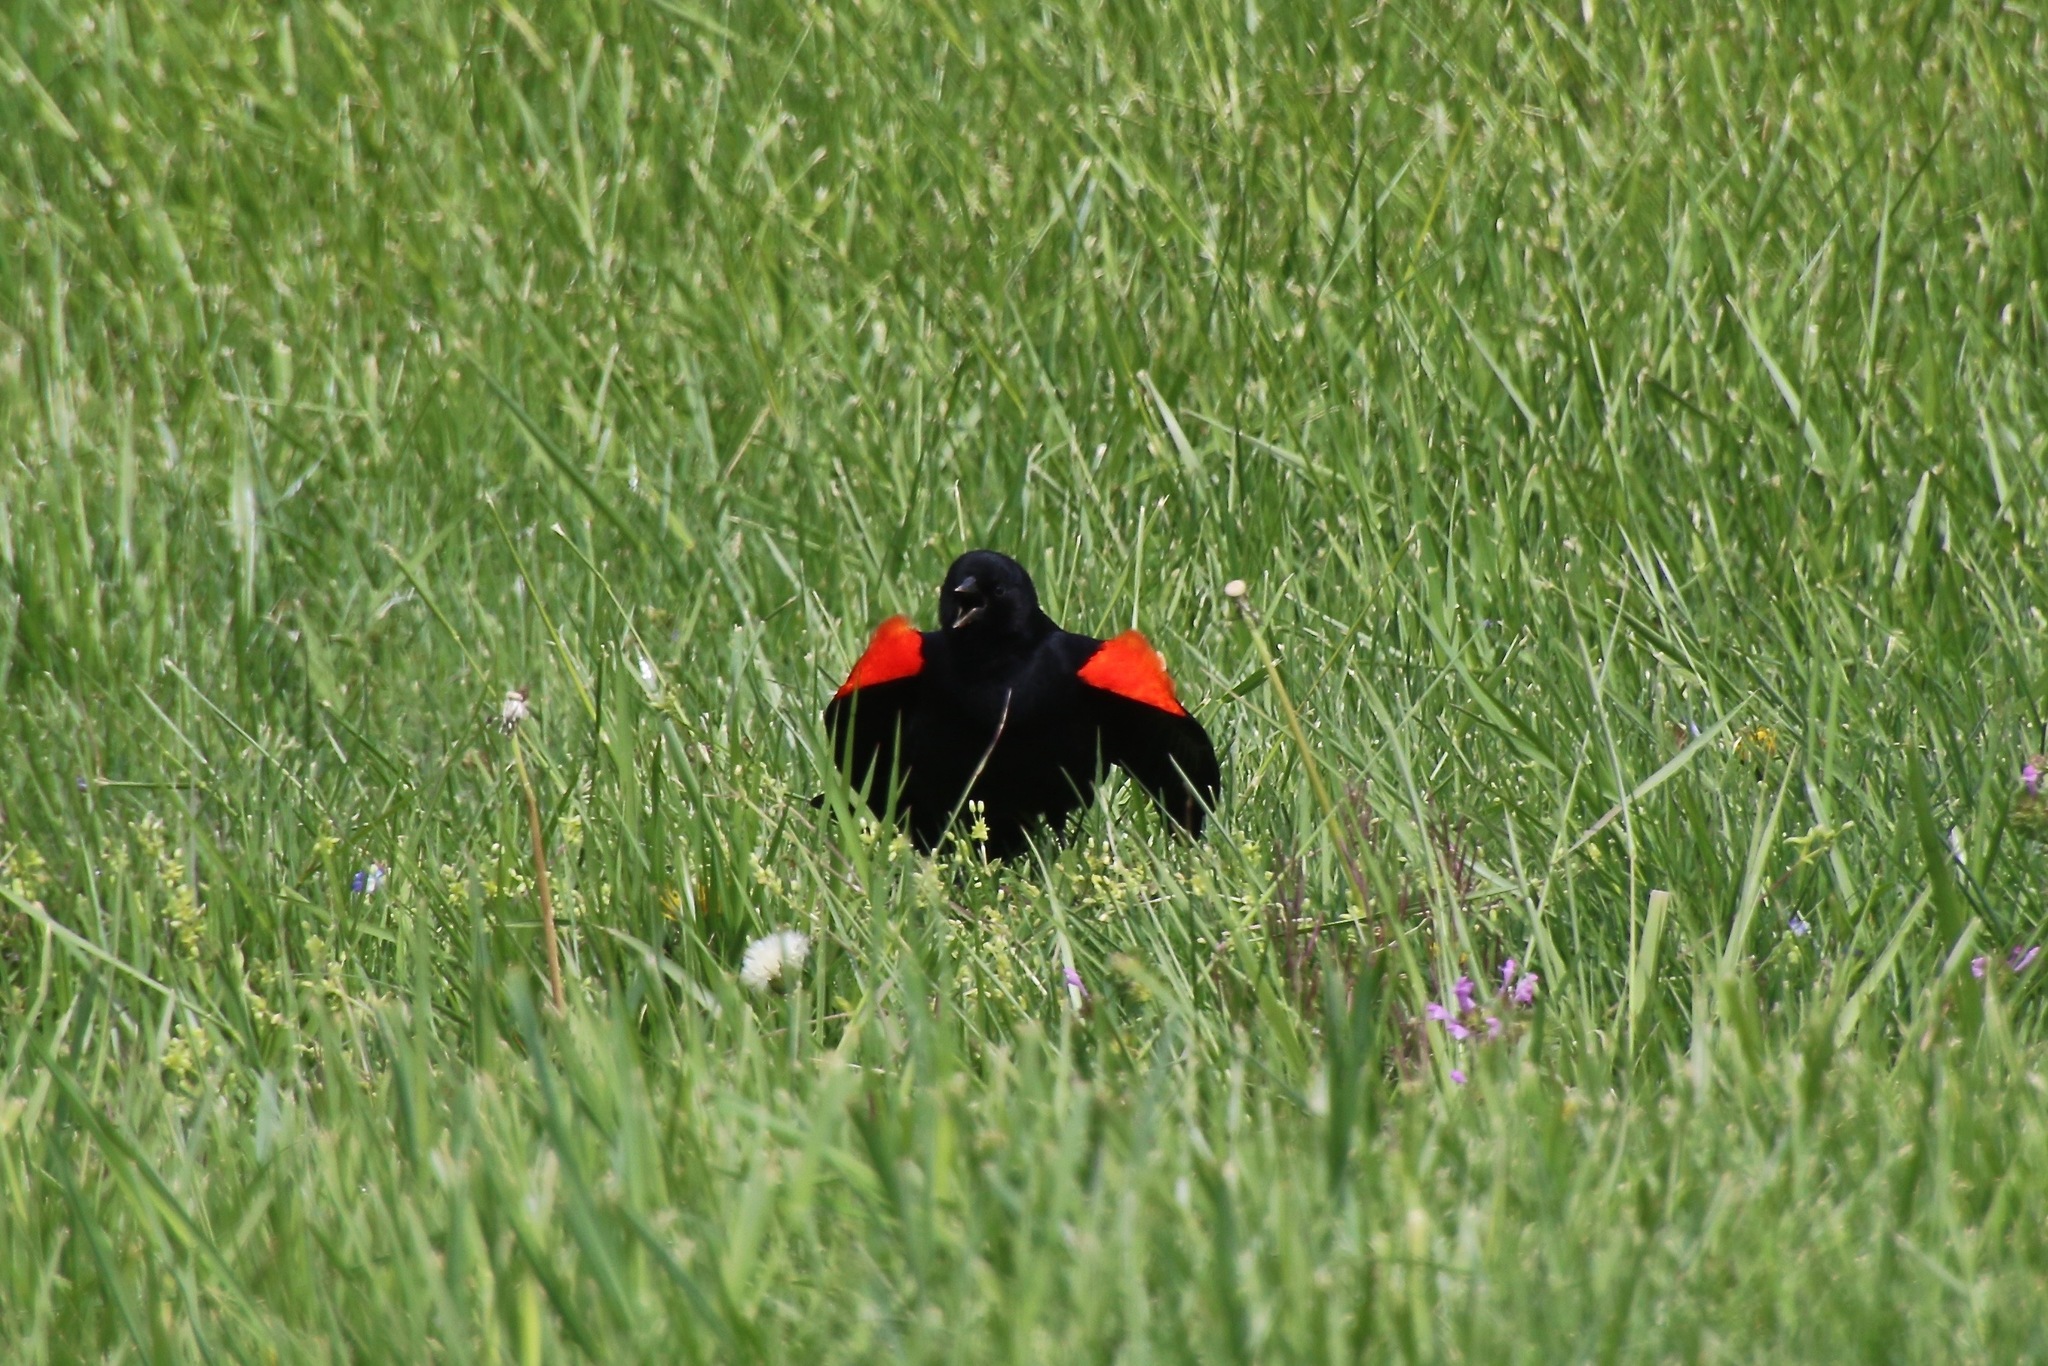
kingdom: Animalia
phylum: Chordata
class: Aves
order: Passeriformes
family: Icteridae
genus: Agelaius
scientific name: Agelaius phoeniceus
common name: Red-winged blackbird
